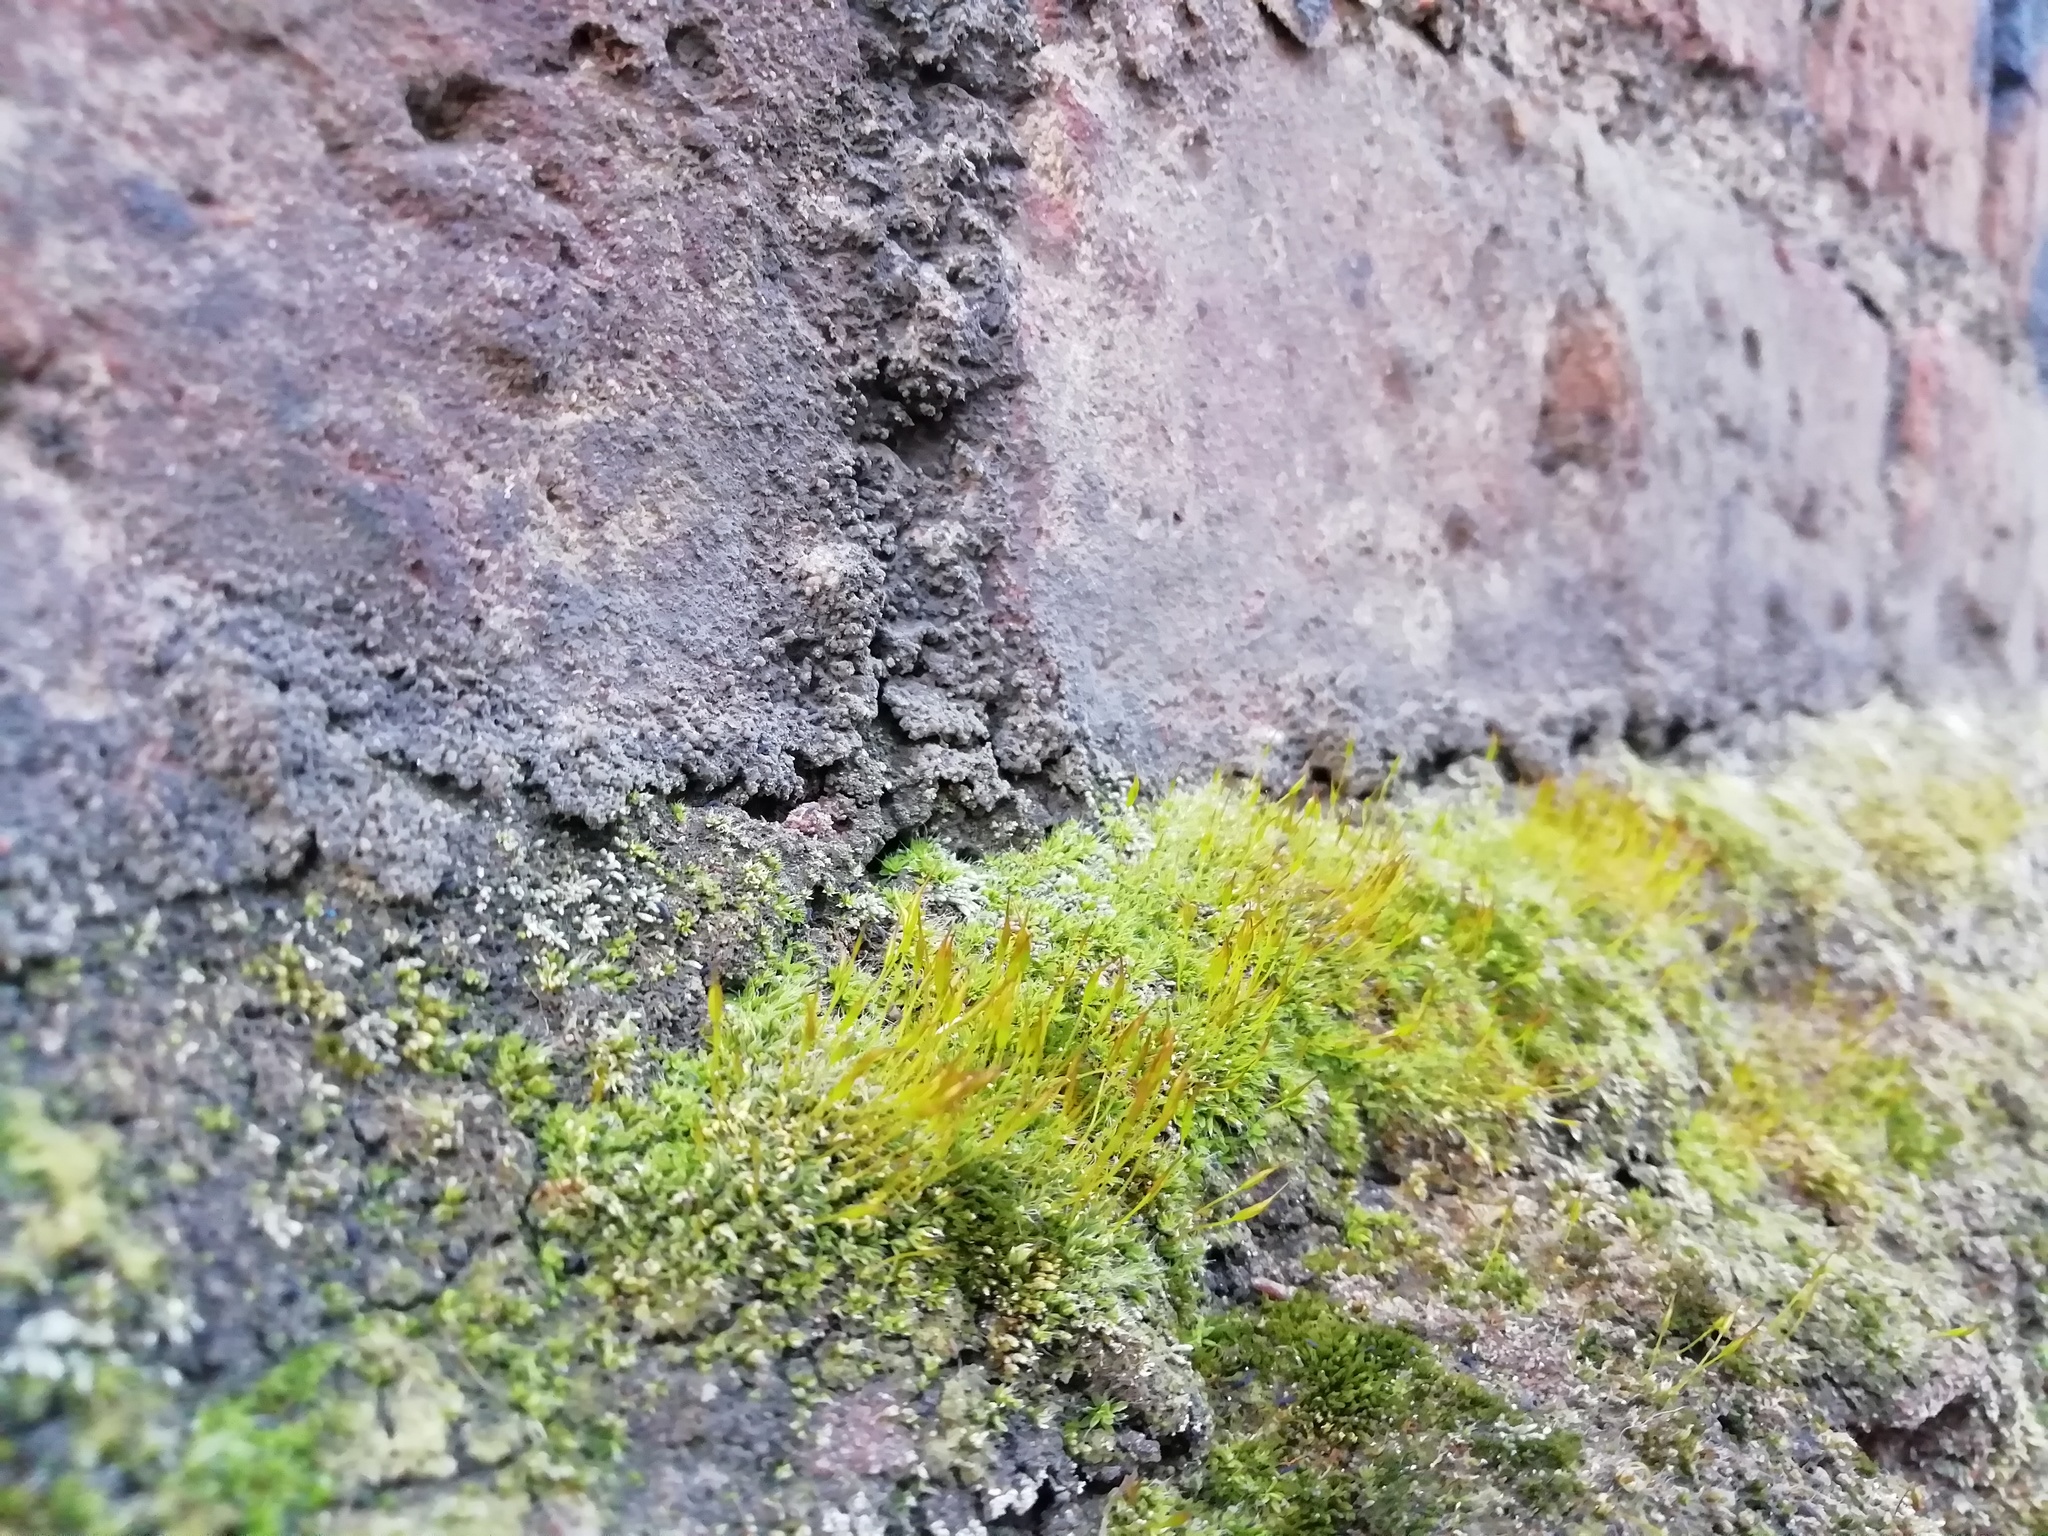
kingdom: Plantae
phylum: Bryophyta
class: Bryopsida
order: Pottiales
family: Pottiaceae
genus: Tortula
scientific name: Tortula muralis
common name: Wall screw-moss
